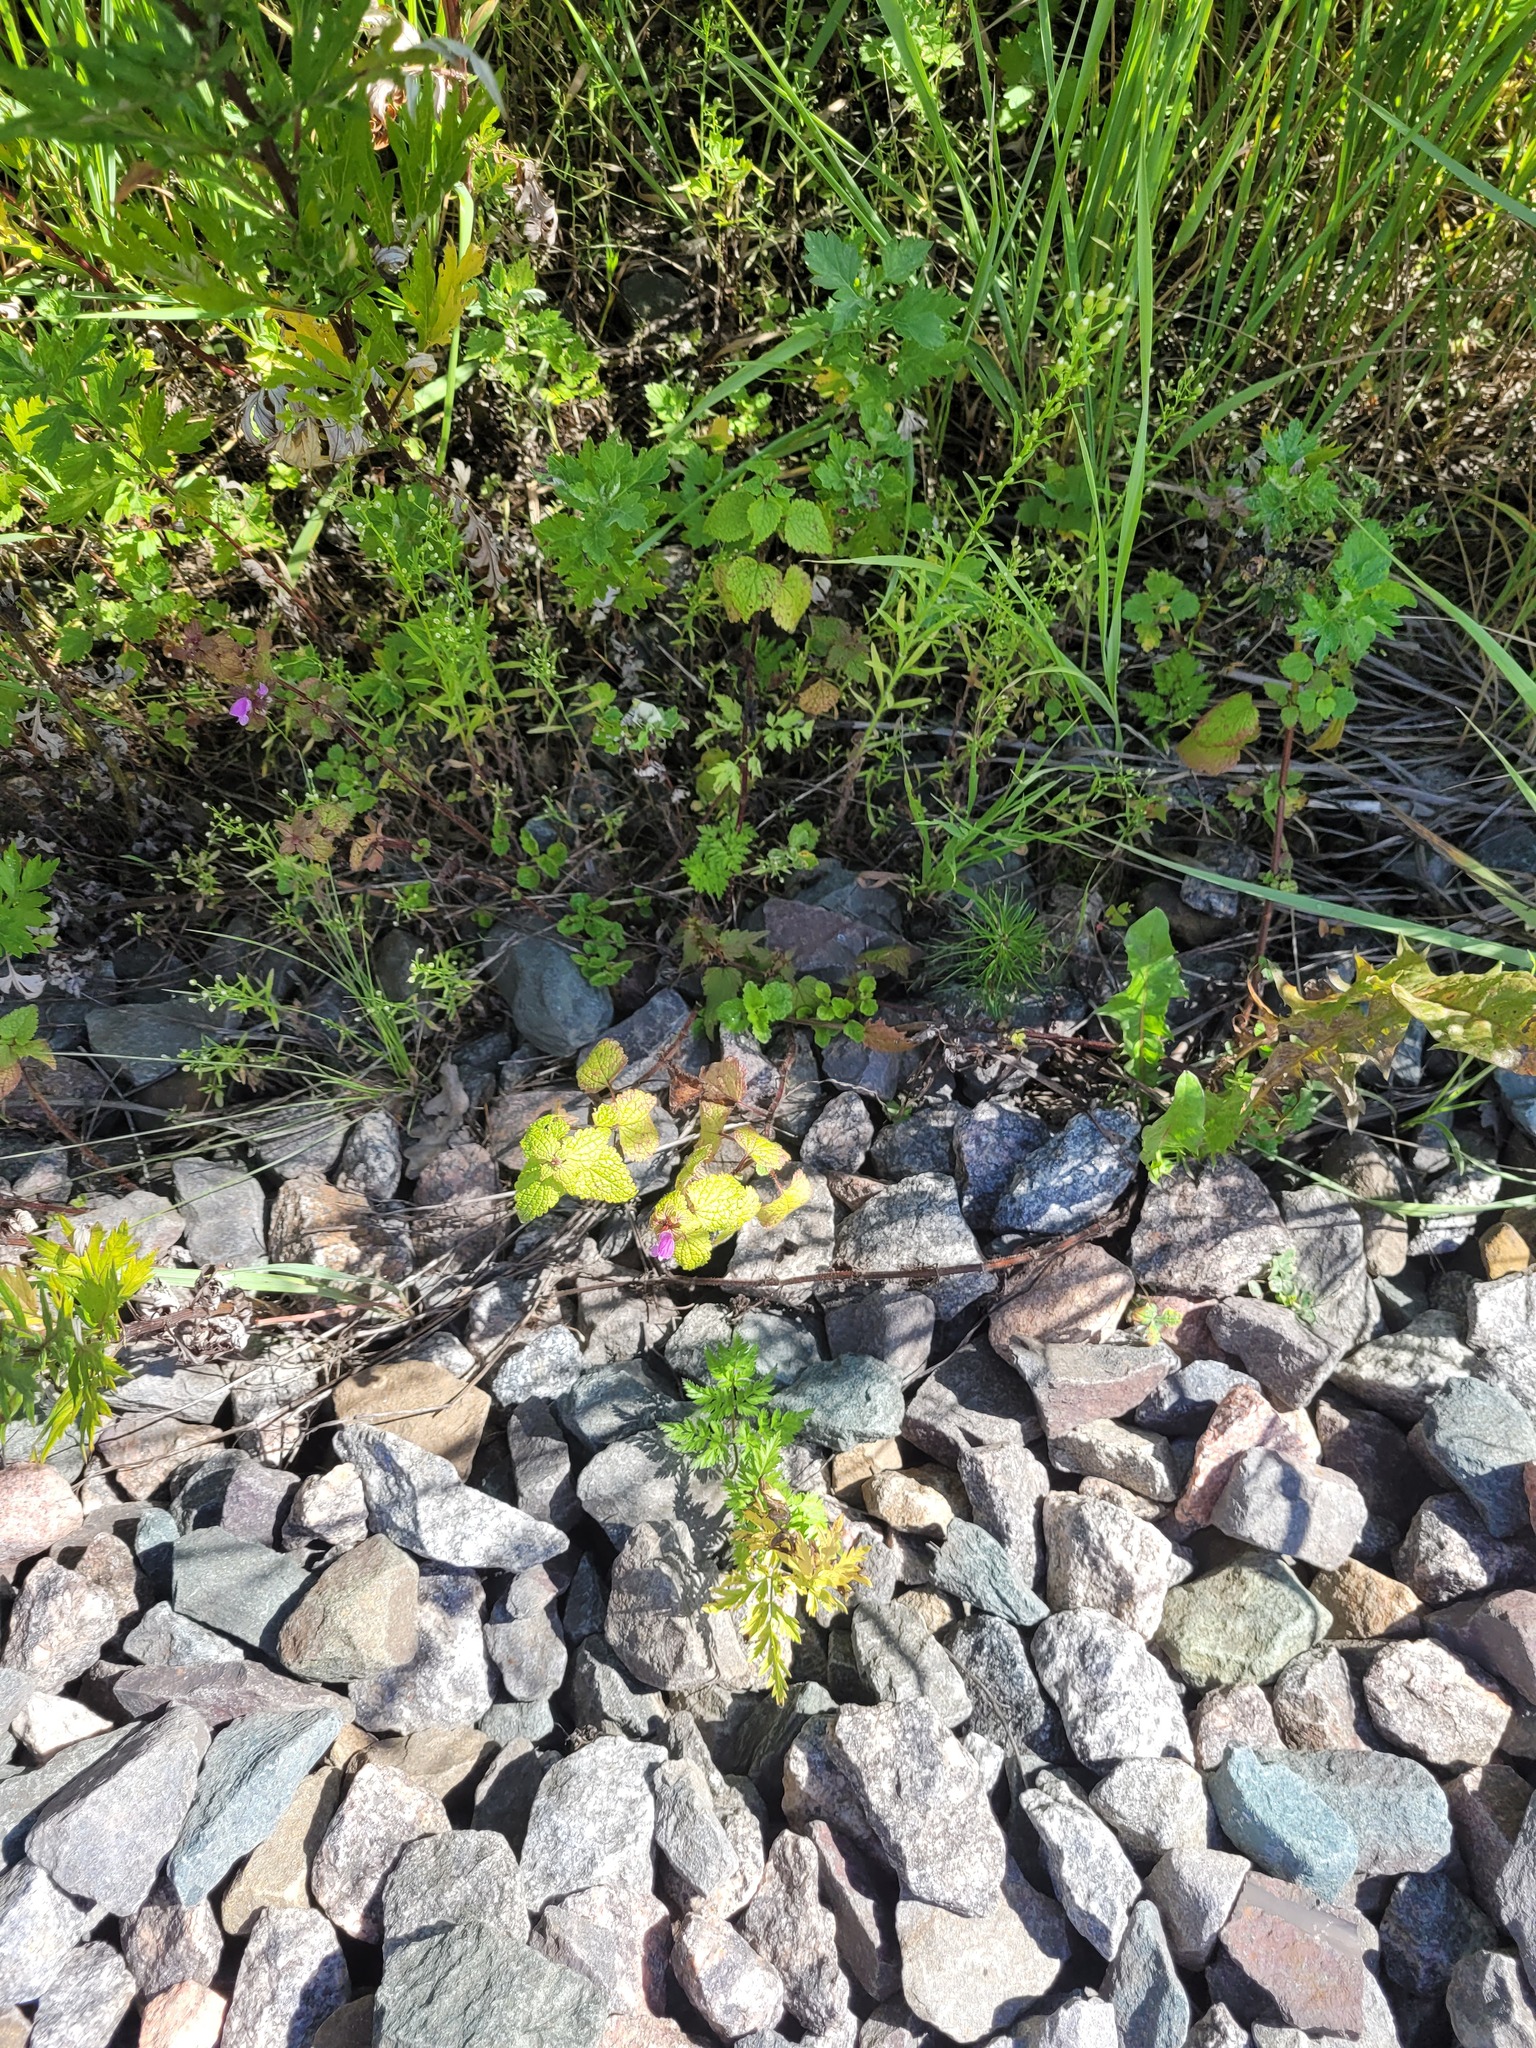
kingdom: Plantae
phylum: Tracheophyta
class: Magnoliopsida
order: Lamiales
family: Lamiaceae
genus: Lamium
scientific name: Lamium maculatum
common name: Spotted dead-nettle
